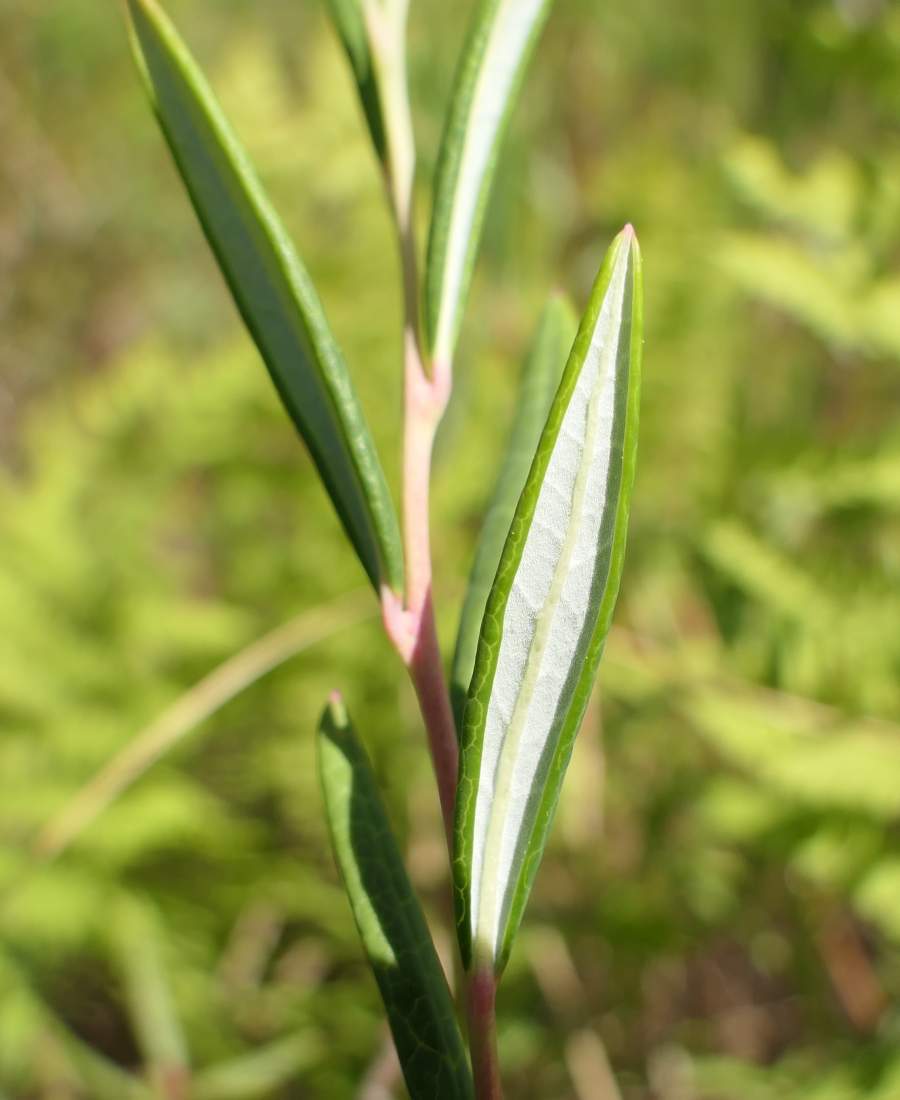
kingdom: Plantae
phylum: Tracheophyta
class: Magnoliopsida
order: Ericales
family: Ericaceae
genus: Andromeda
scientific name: Andromeda polifolia
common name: Bog-rosemary
